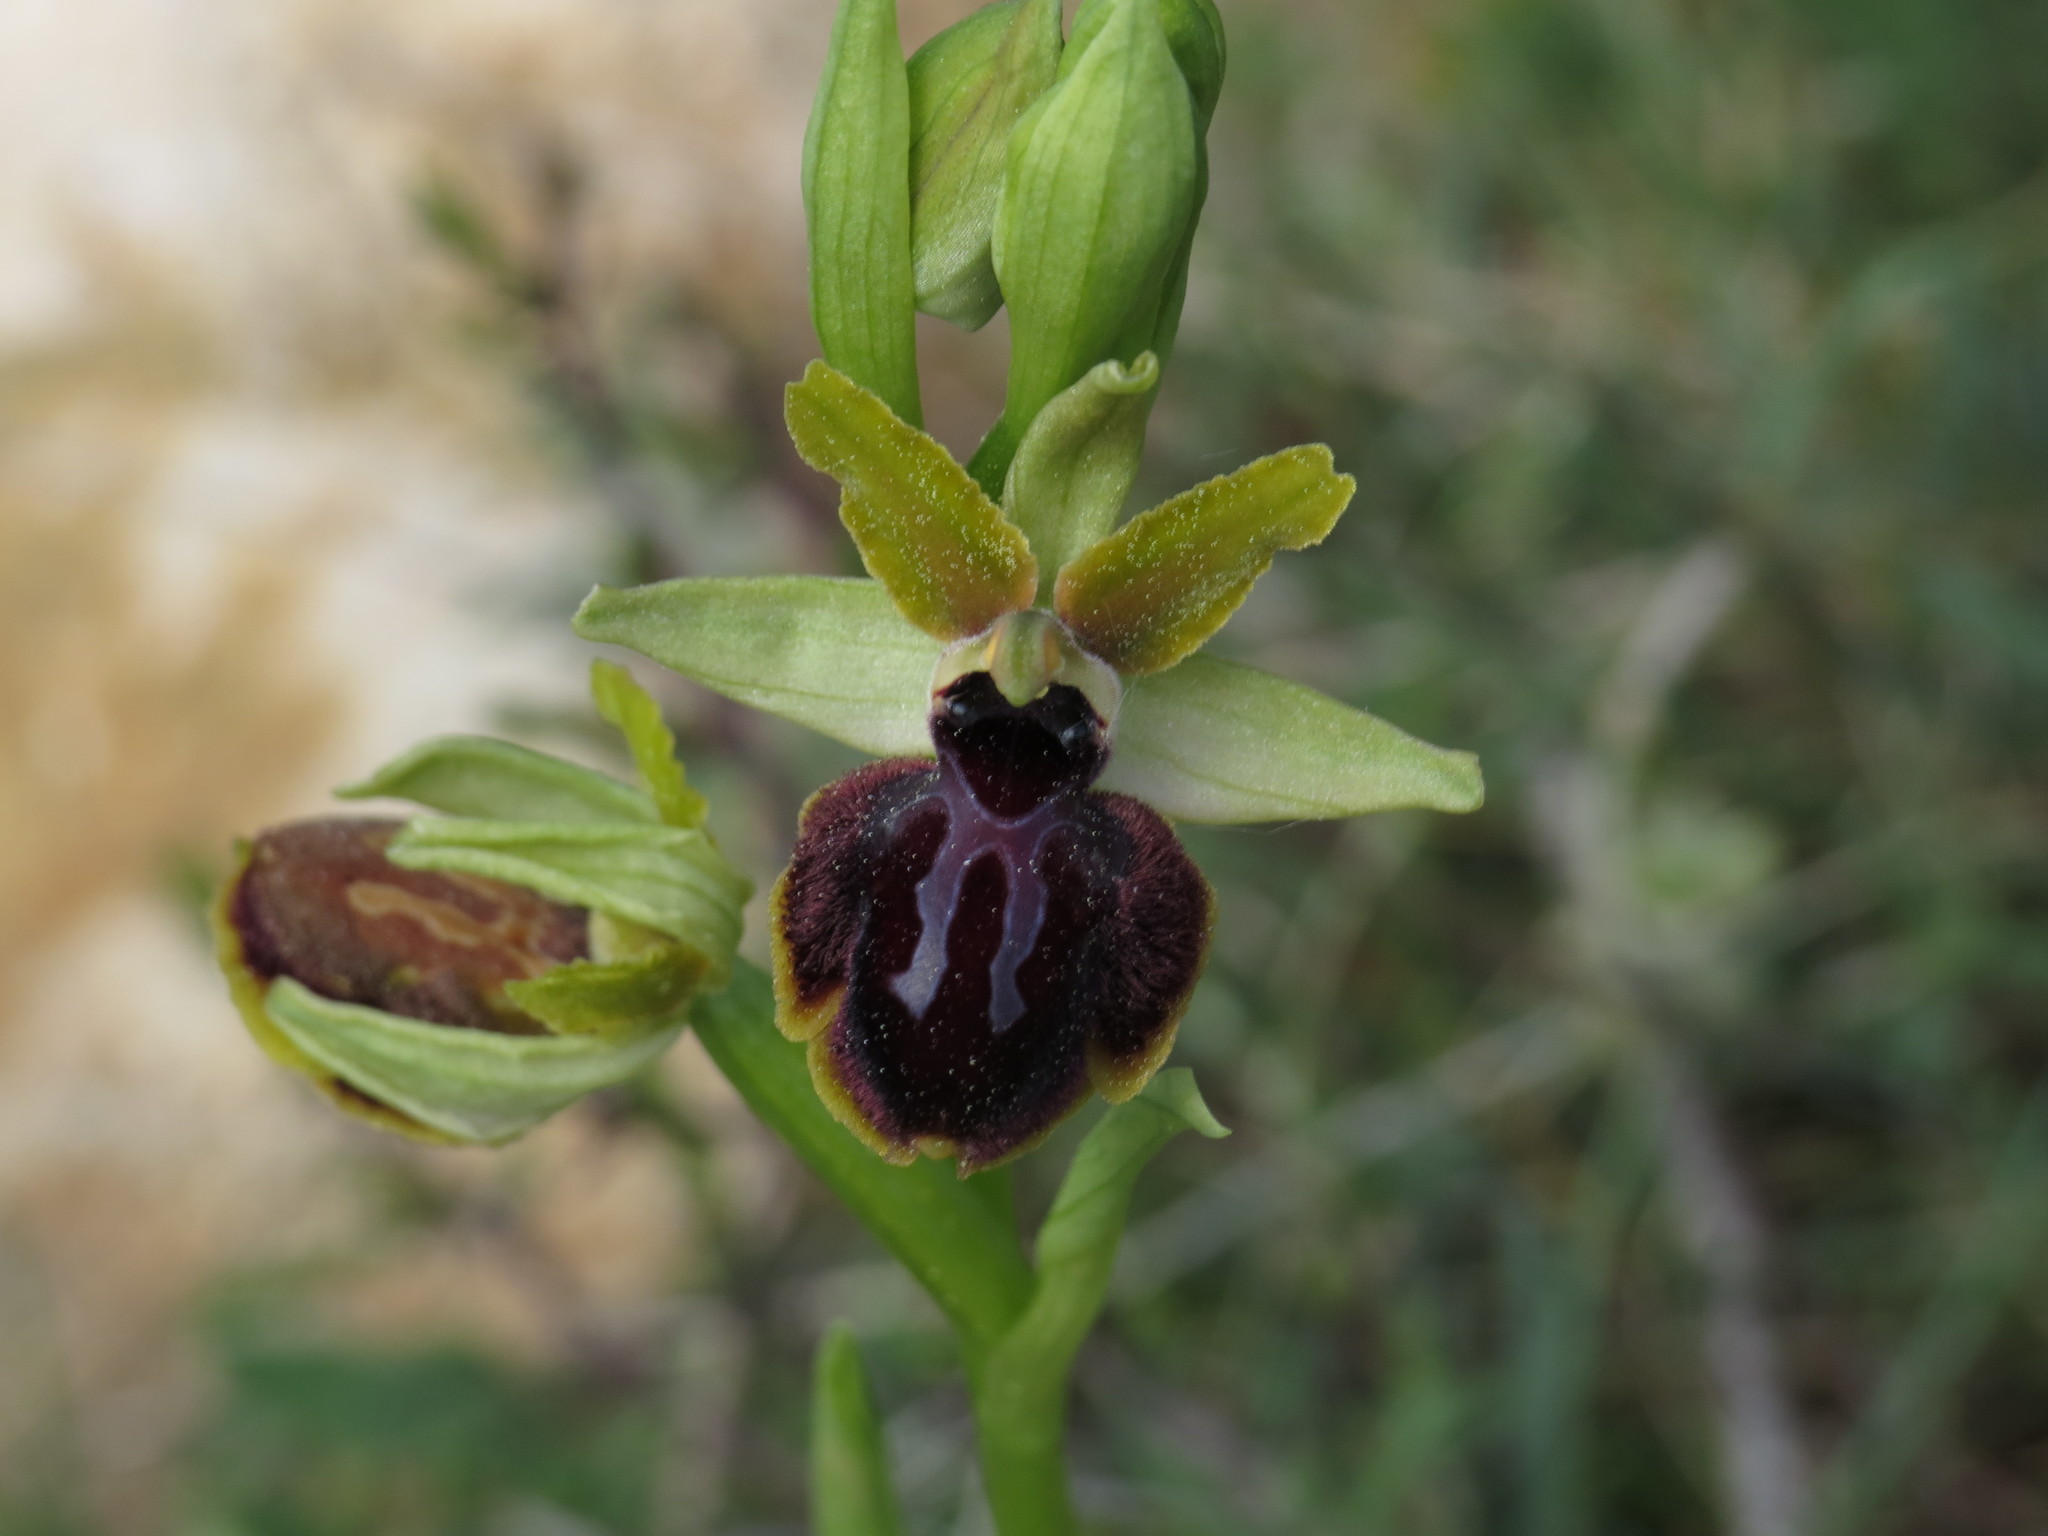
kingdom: Plantae
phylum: Tracheophyta
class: Liliopsida
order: Asparagales
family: Orchidaceae
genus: Ophrys
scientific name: Ophrys sphegodes
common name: Early spider-orchid
